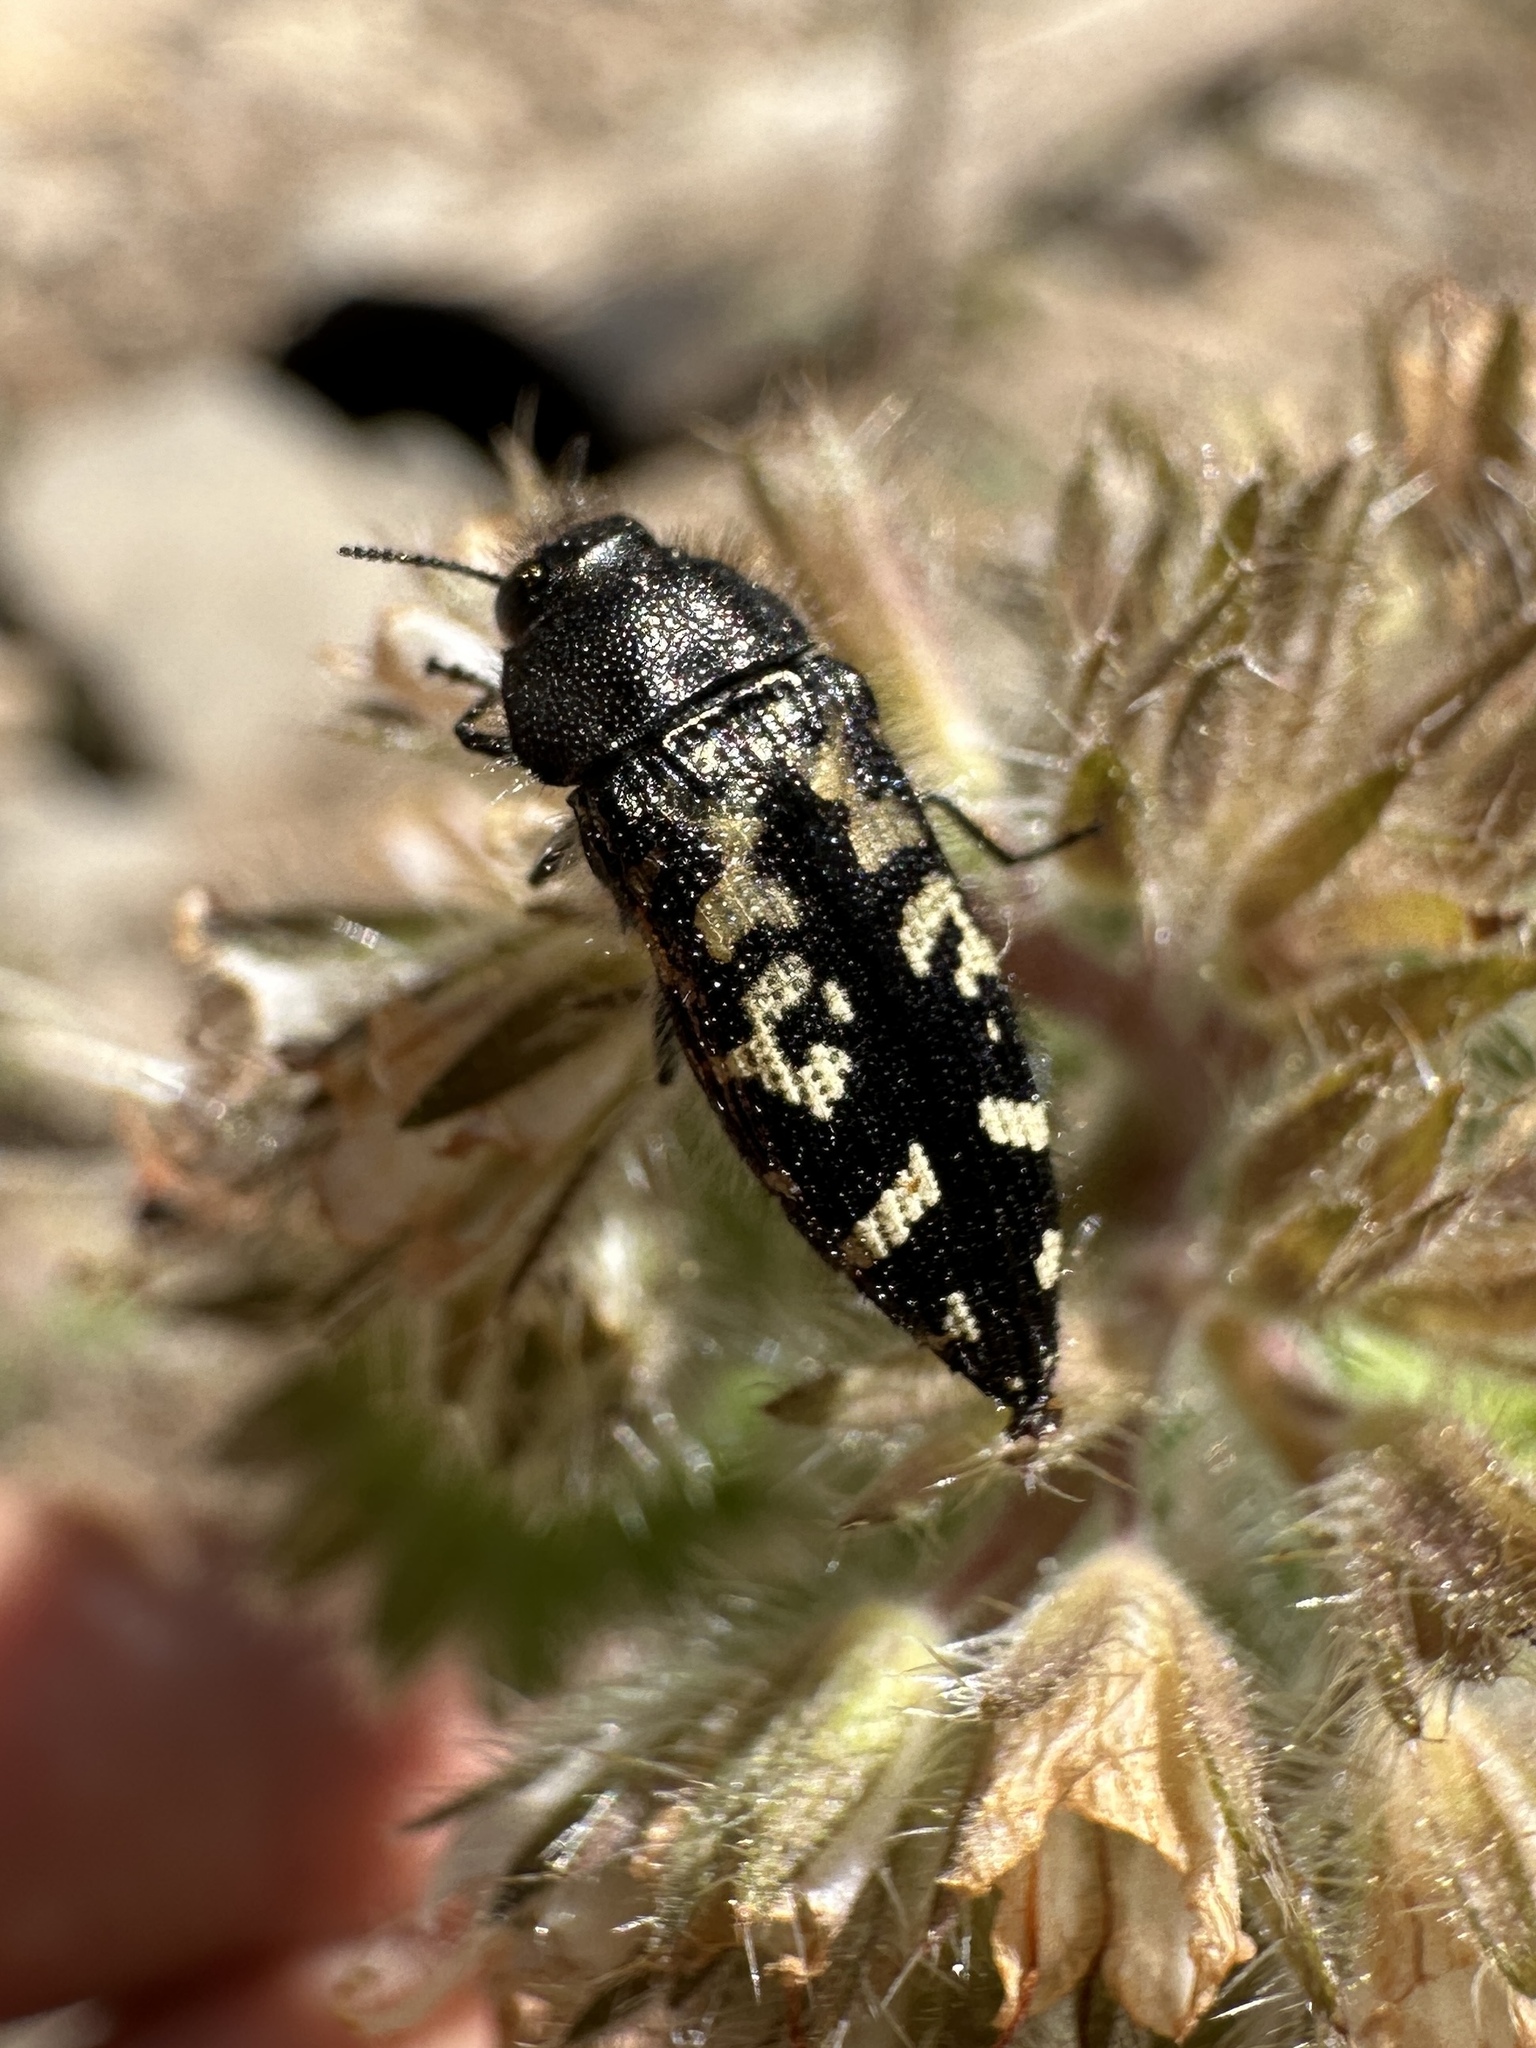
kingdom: Animalia
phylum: Arthropoda
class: Insecta
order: Coleoptera
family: Buprestidae
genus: Acmaeodera
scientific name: Acmaeodera connexa
